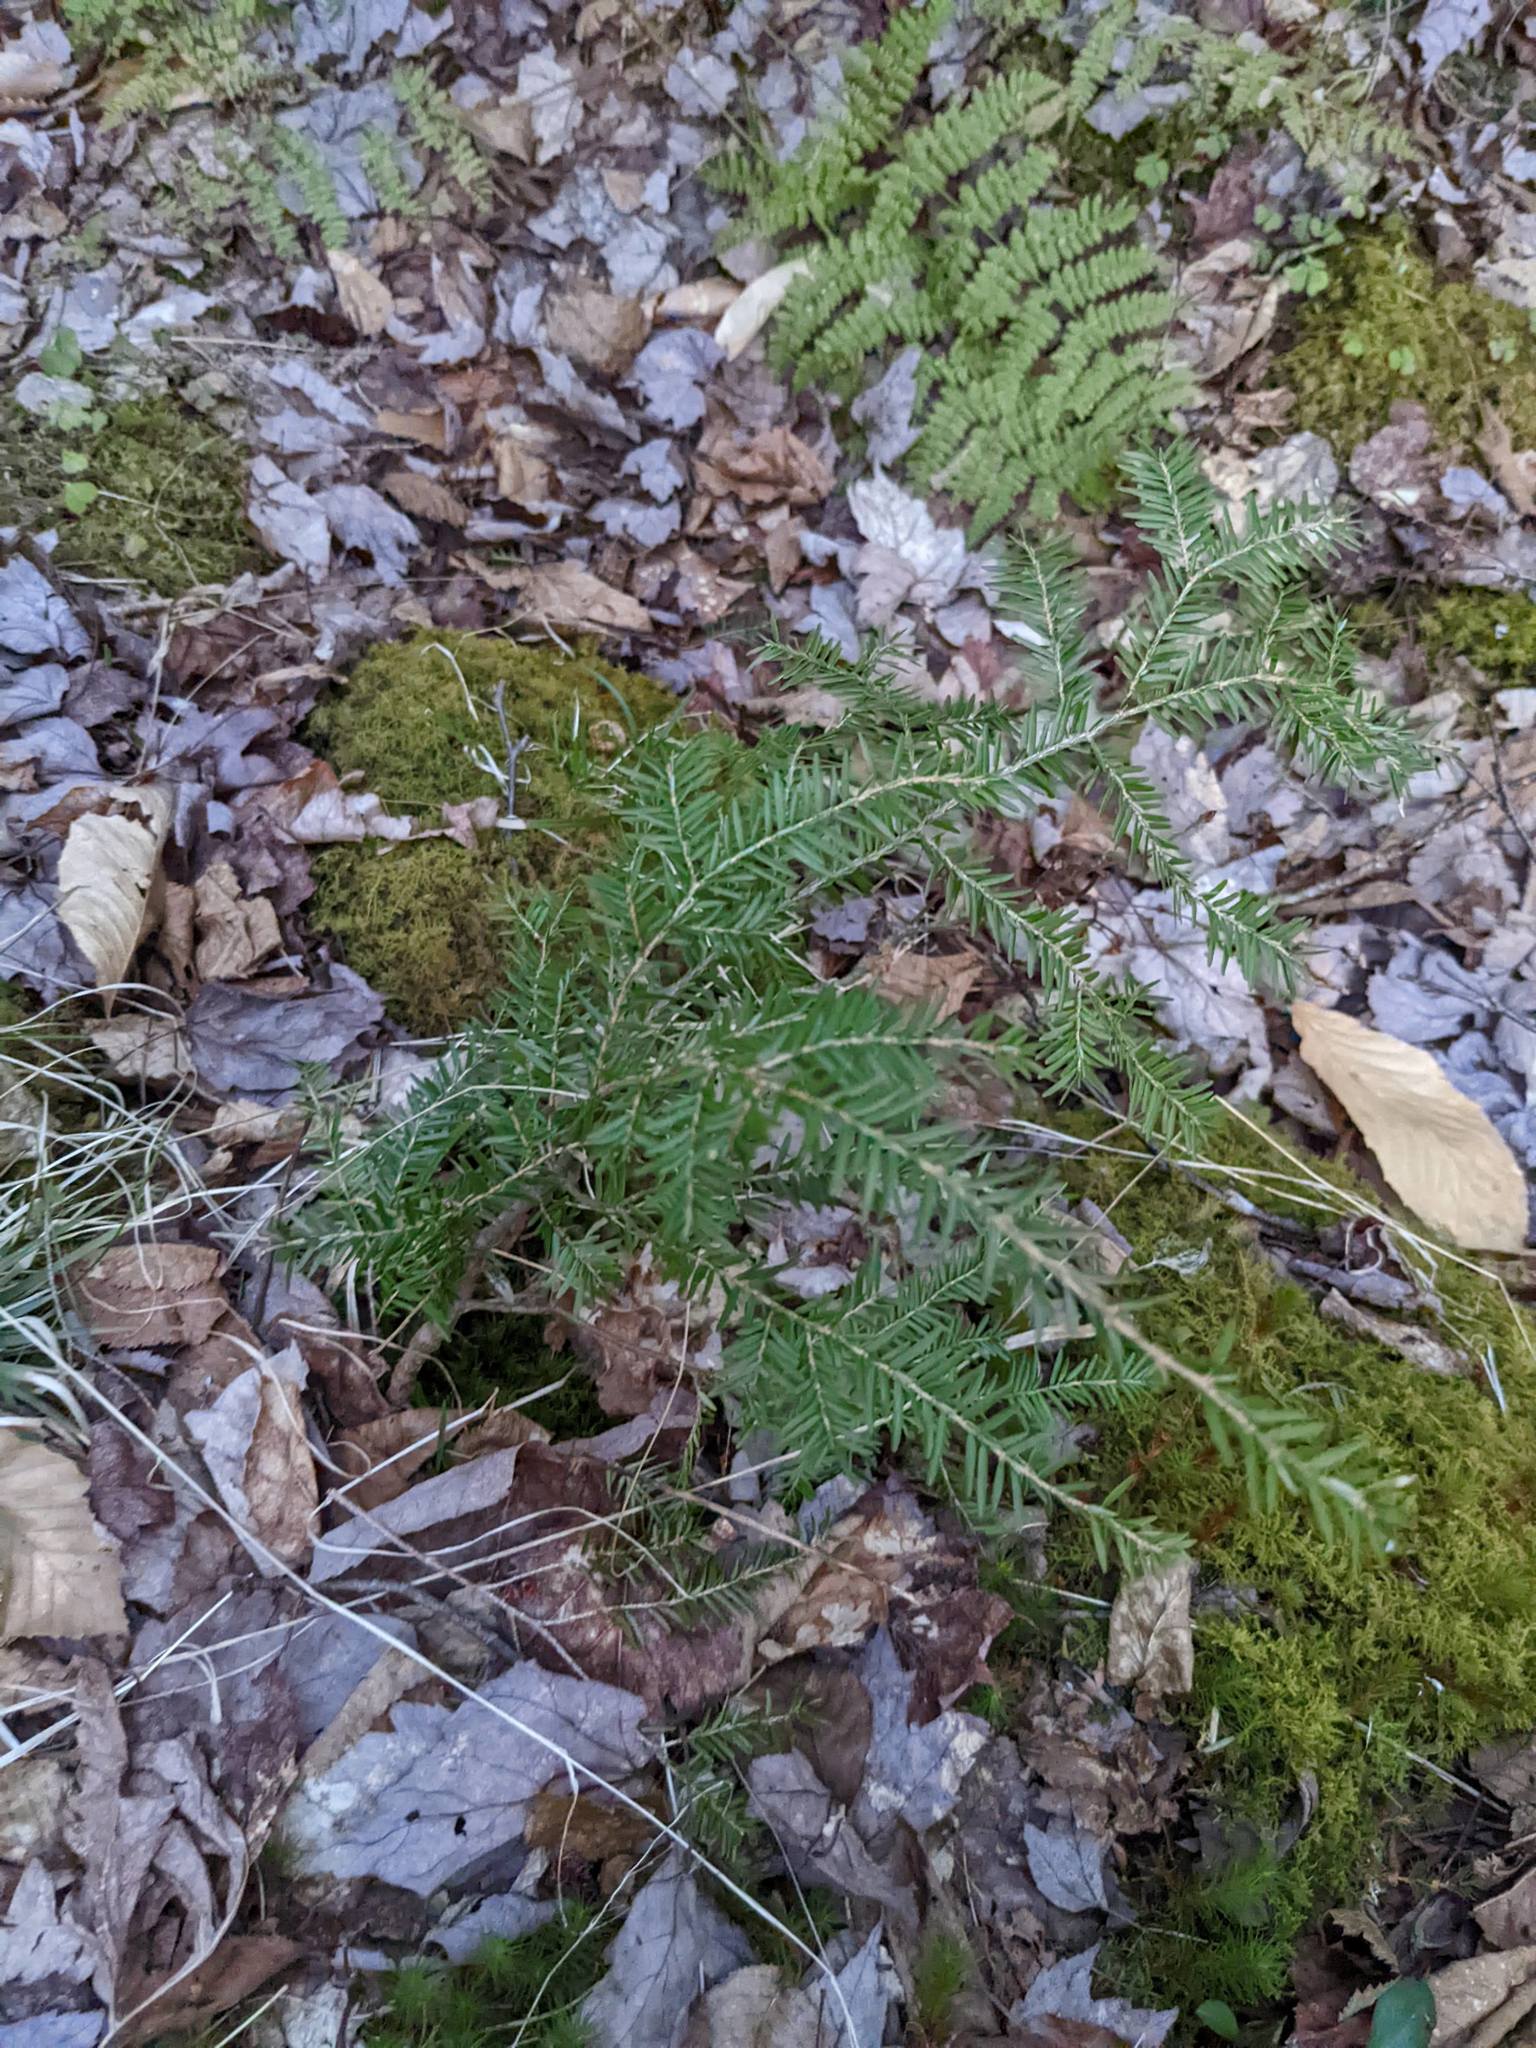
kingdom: Plantae
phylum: Tracheophyta
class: Pinopsida
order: Pinales
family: Pinaceae
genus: Tsuga
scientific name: Tsuga canadensis
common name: Eastern hemlock
